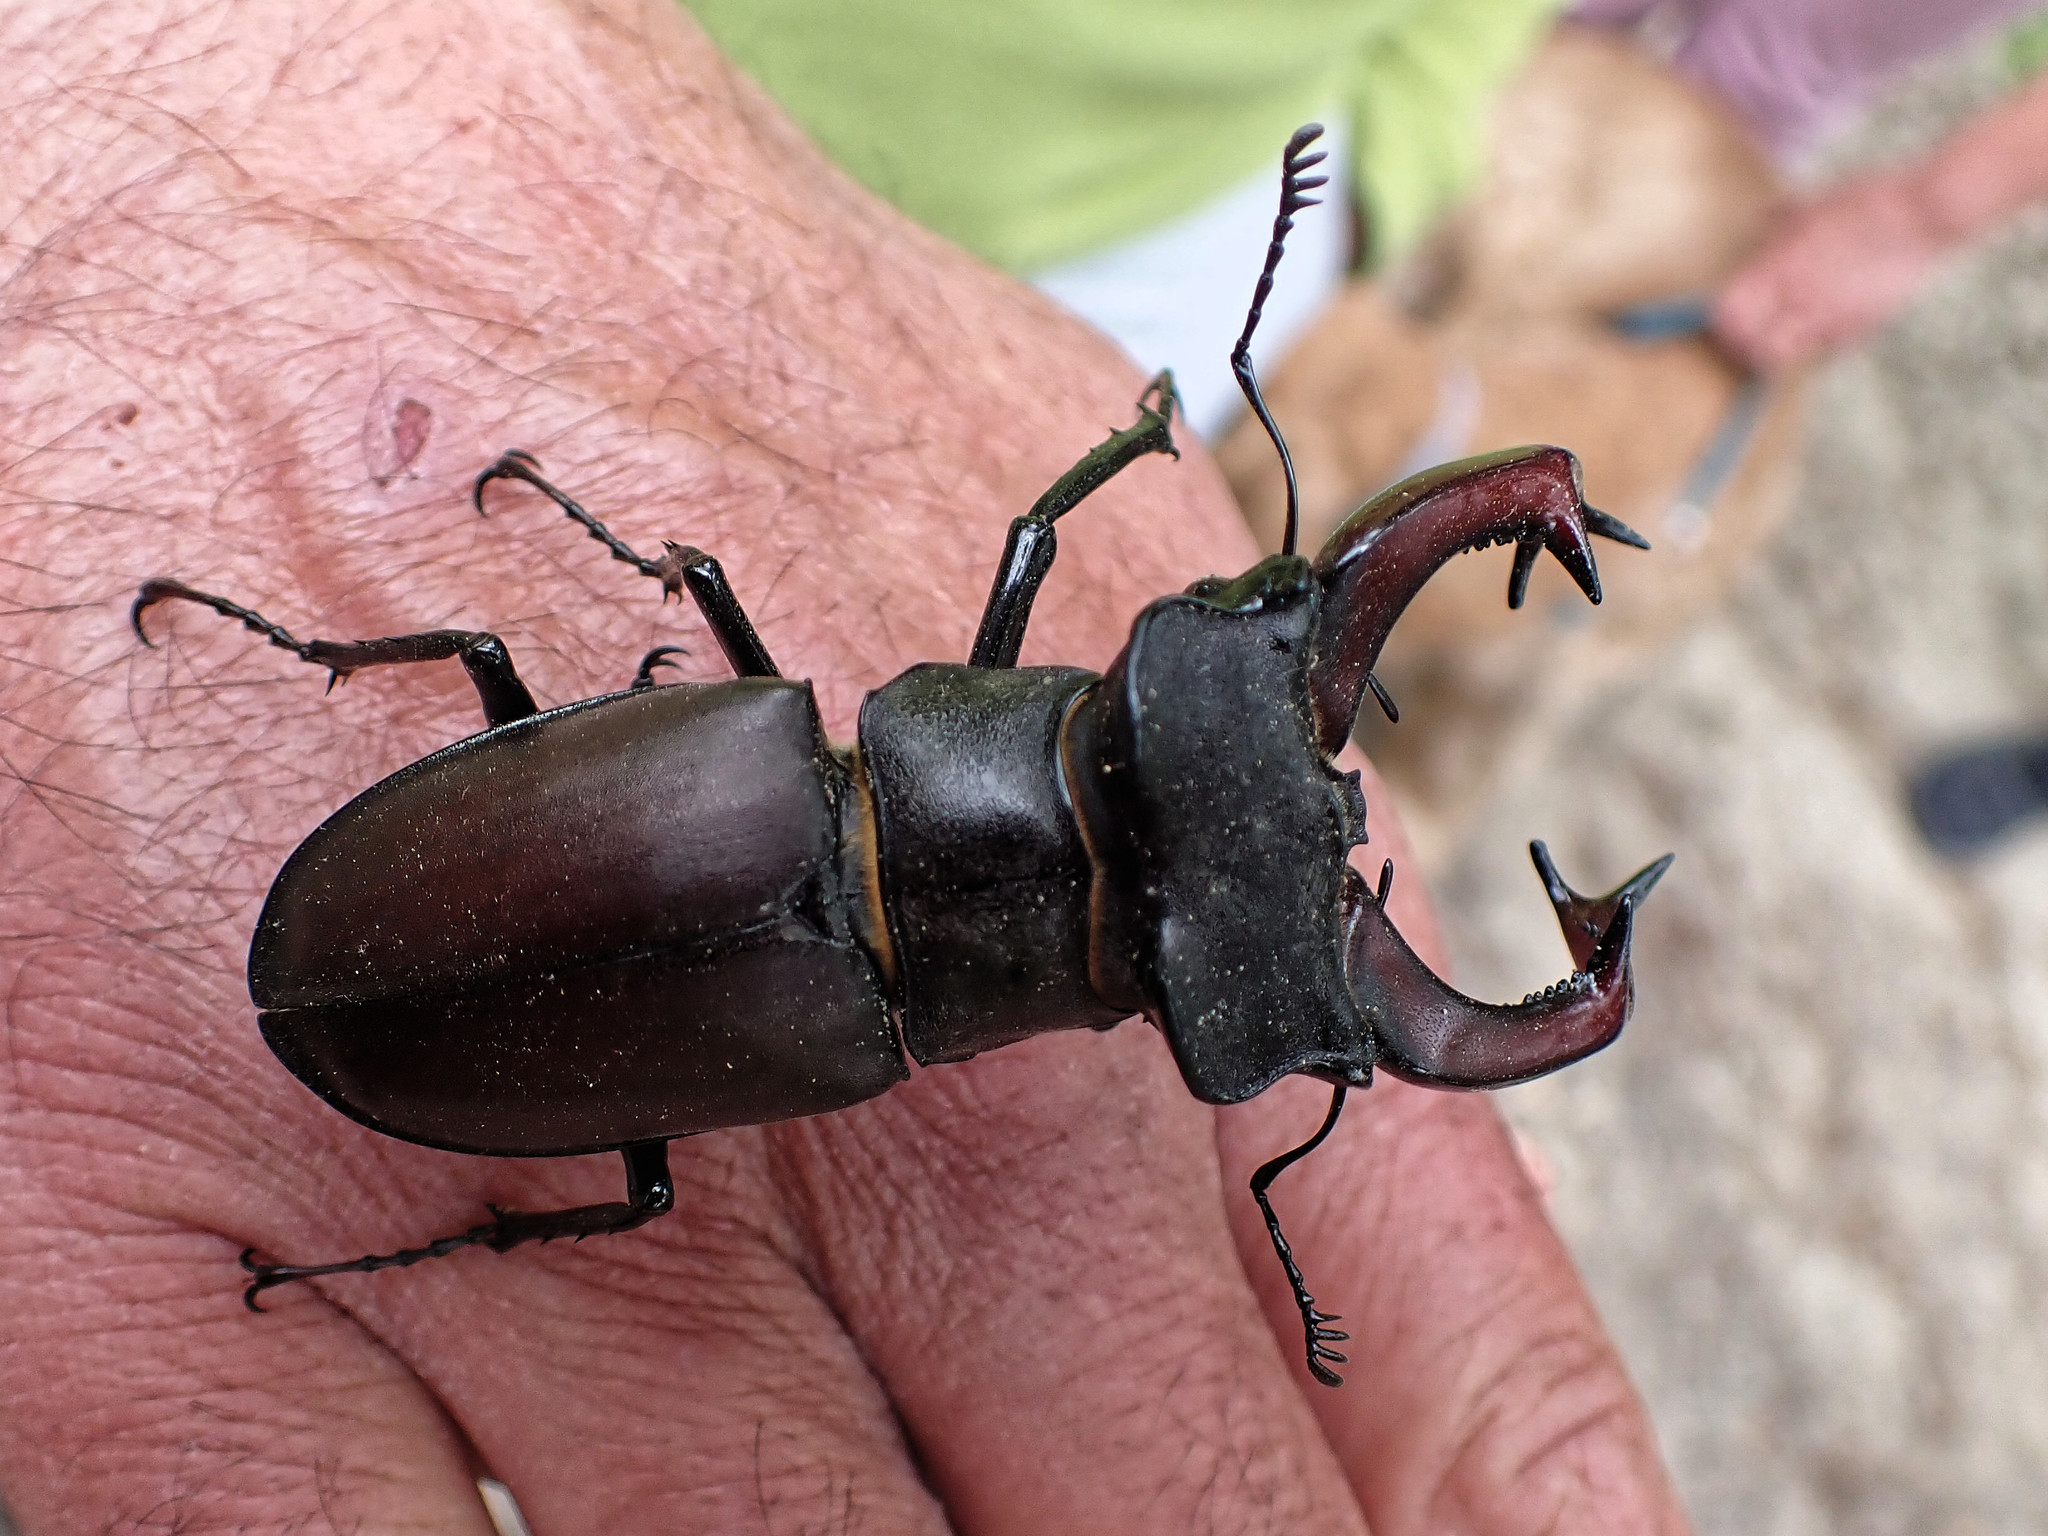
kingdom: Animalia
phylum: Arthropoda
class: Insecta
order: Coleoptera
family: Lucanidae
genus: Lucanus
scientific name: Lucanus cervus
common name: Stag beetle
